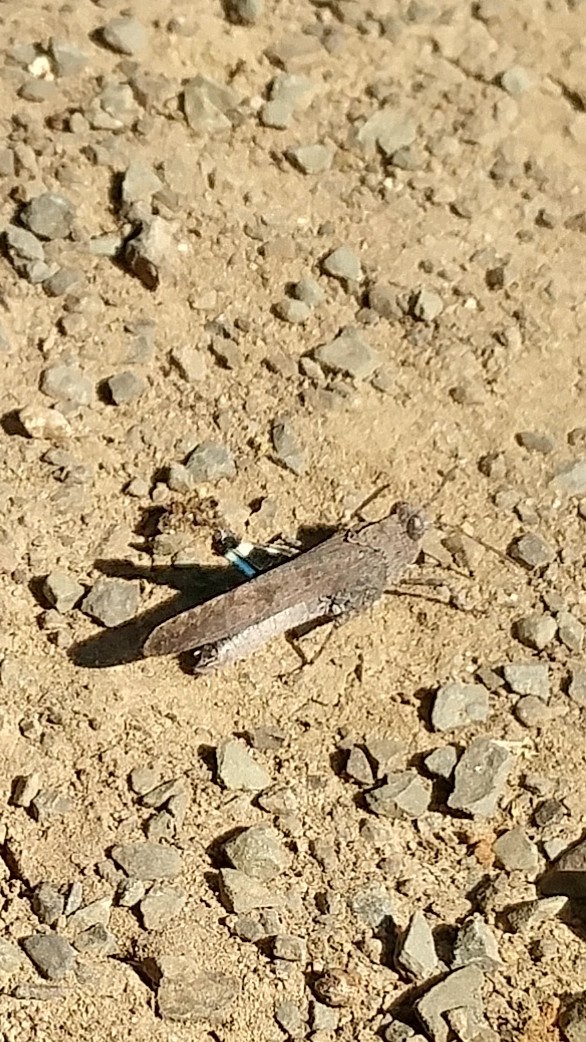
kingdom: Animalia
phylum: Arthropoda
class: Insecta
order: Orthoptera
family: Acrididae
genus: Lactista
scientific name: Lactista gibbosus
